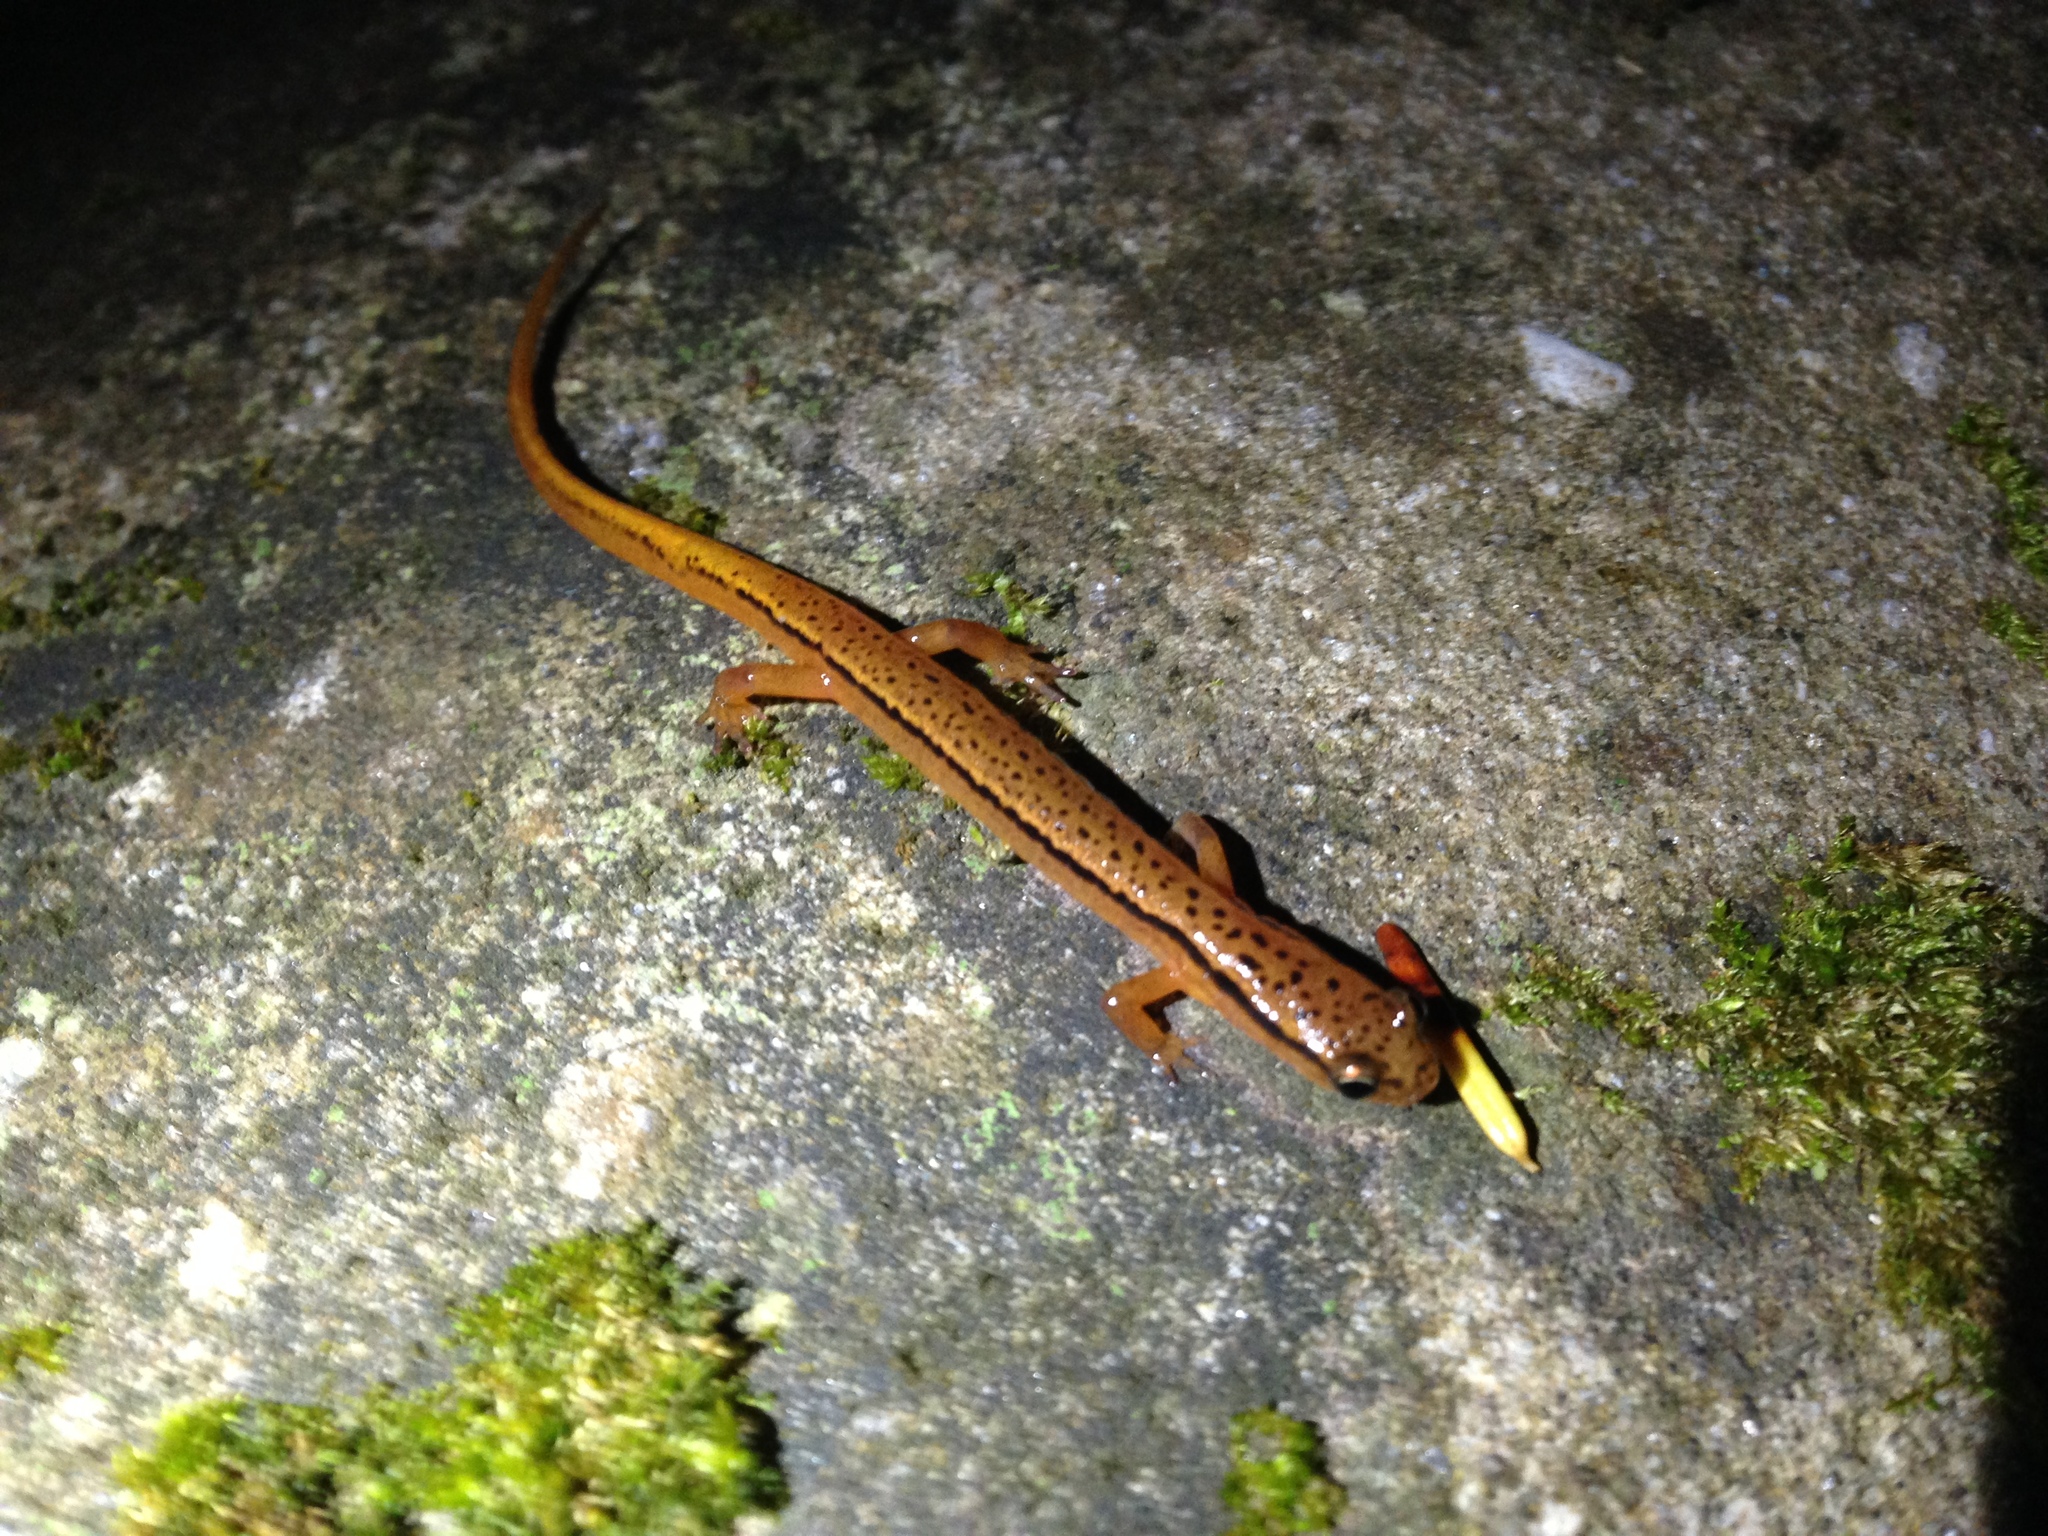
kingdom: Animalia
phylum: Chordata
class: Amphibia
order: Caudata
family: Plethodontidae
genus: Eurycea
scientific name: Eurycea wilderae
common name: Blue ridge two-lined salamander
